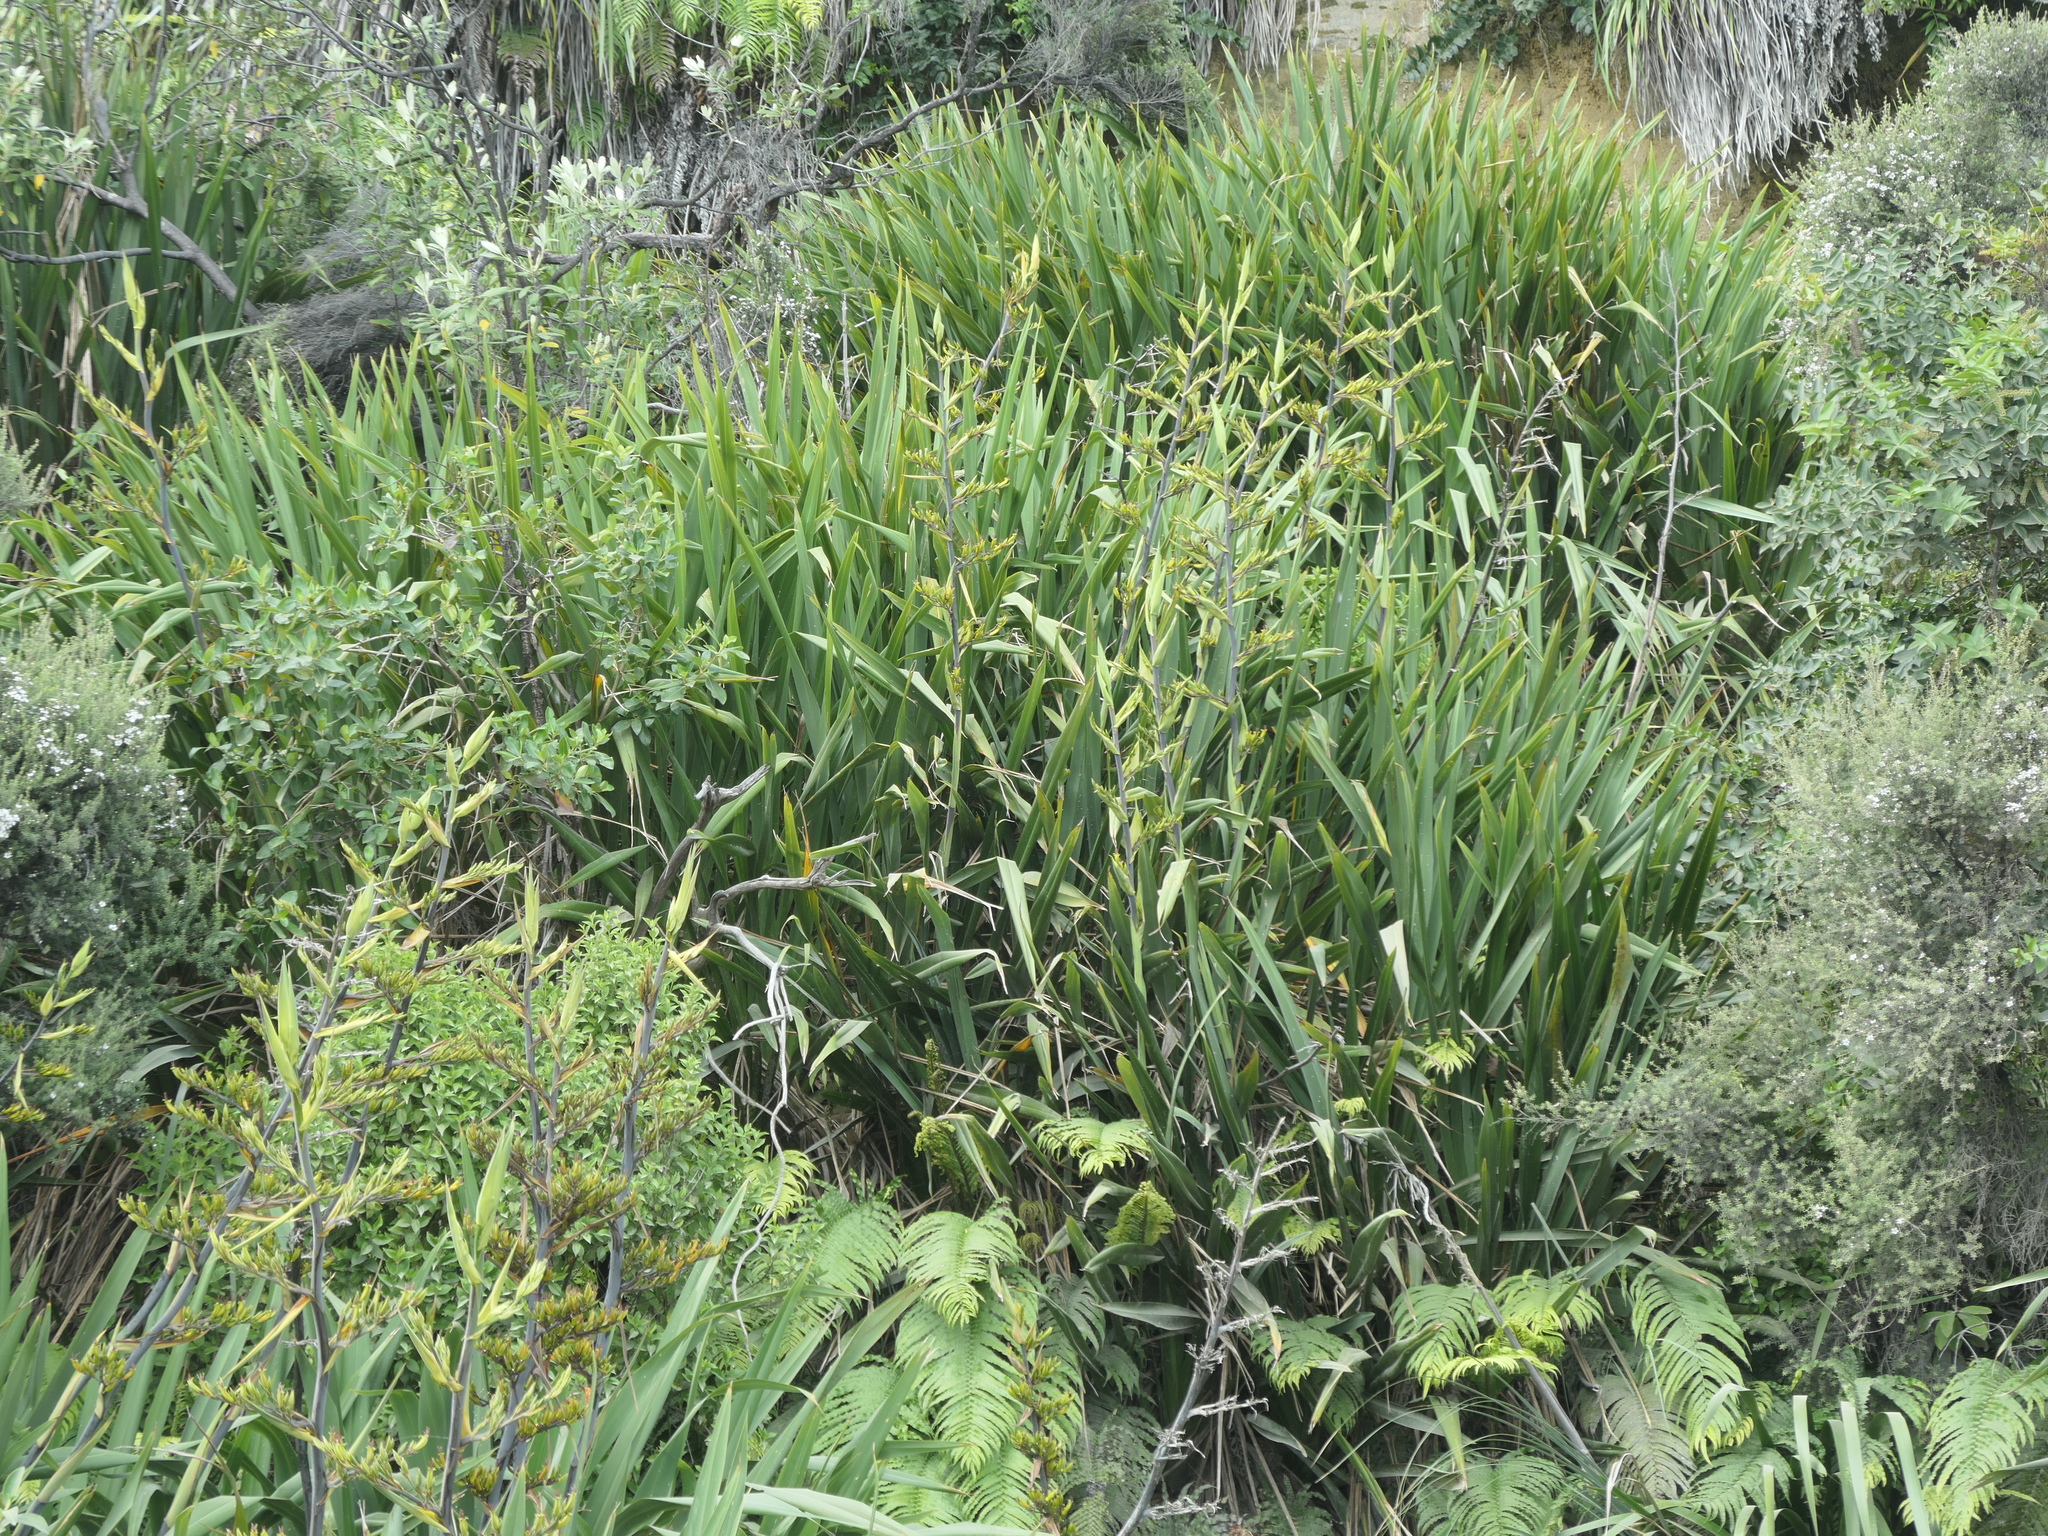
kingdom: Plantae
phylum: Tracheophyta
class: Liliopsida
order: Asparagales
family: Asphodelaceae
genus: Phormium
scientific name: Phormium tenax
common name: New zealand flax
